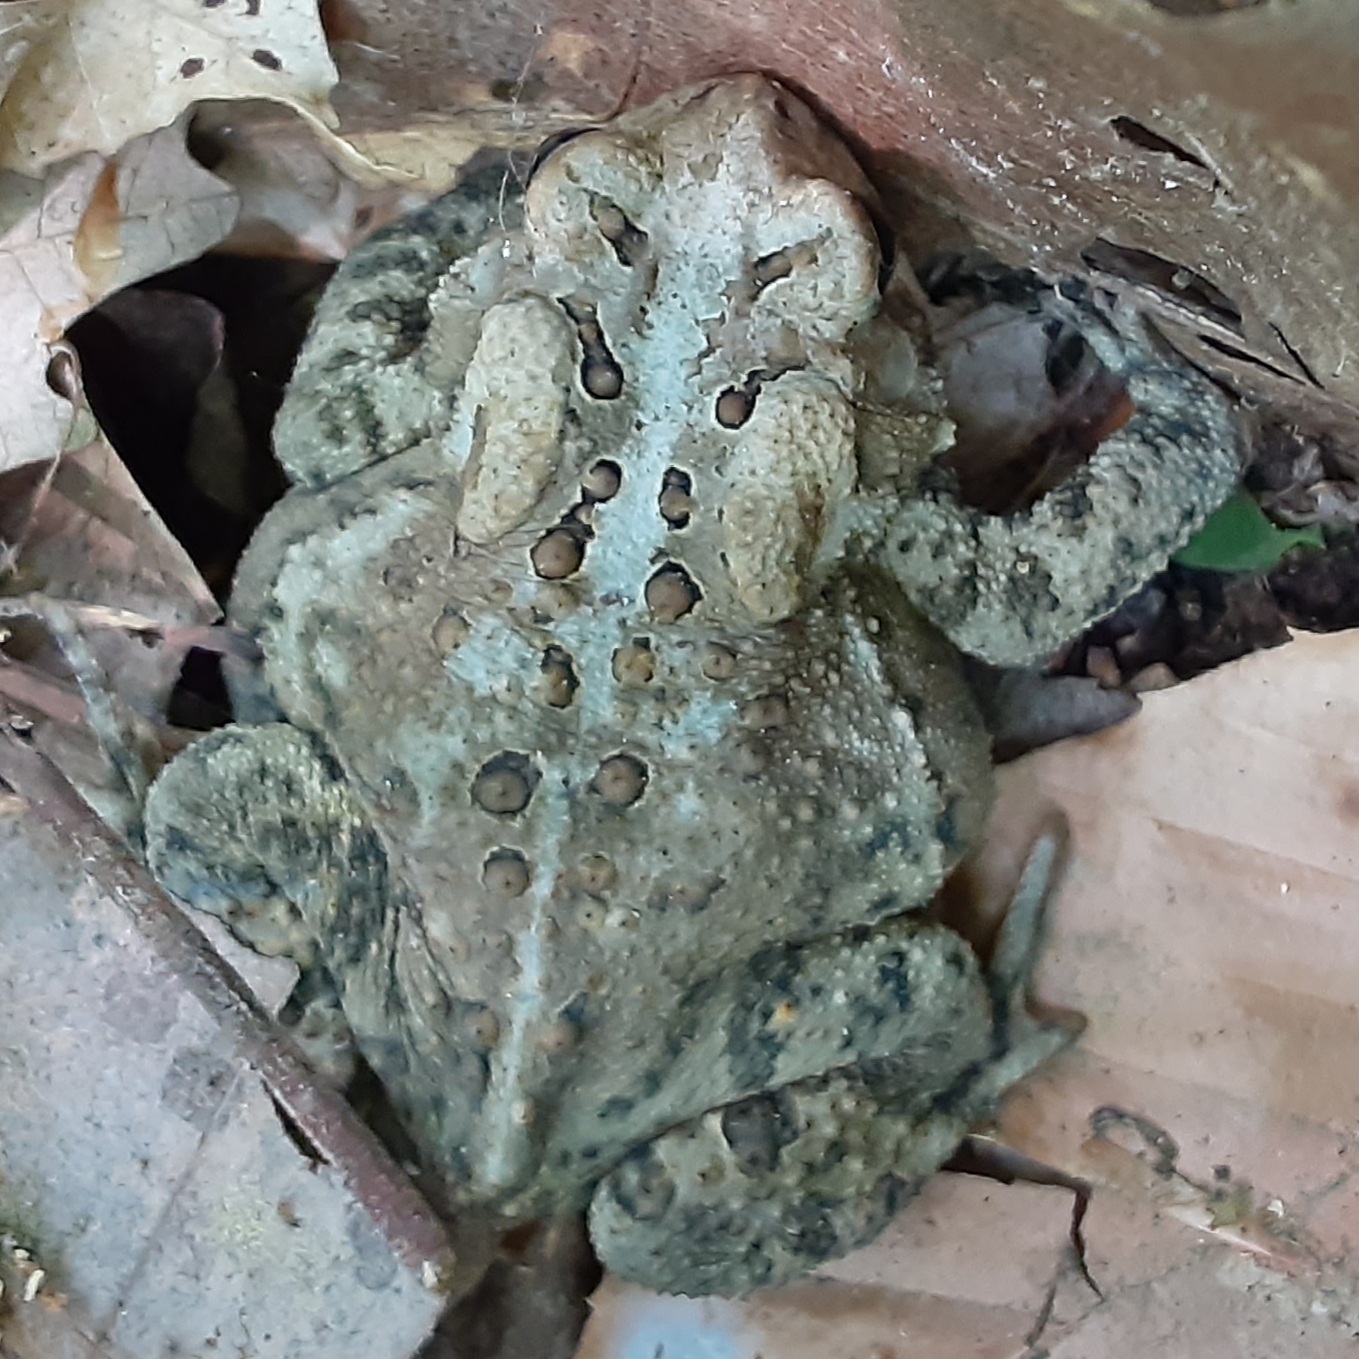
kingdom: Animalia
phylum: Chordata
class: Amphibia
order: Anura
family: Bufonidae
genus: Anaxyrus
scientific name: Anaxyrus americanus
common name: American toad
